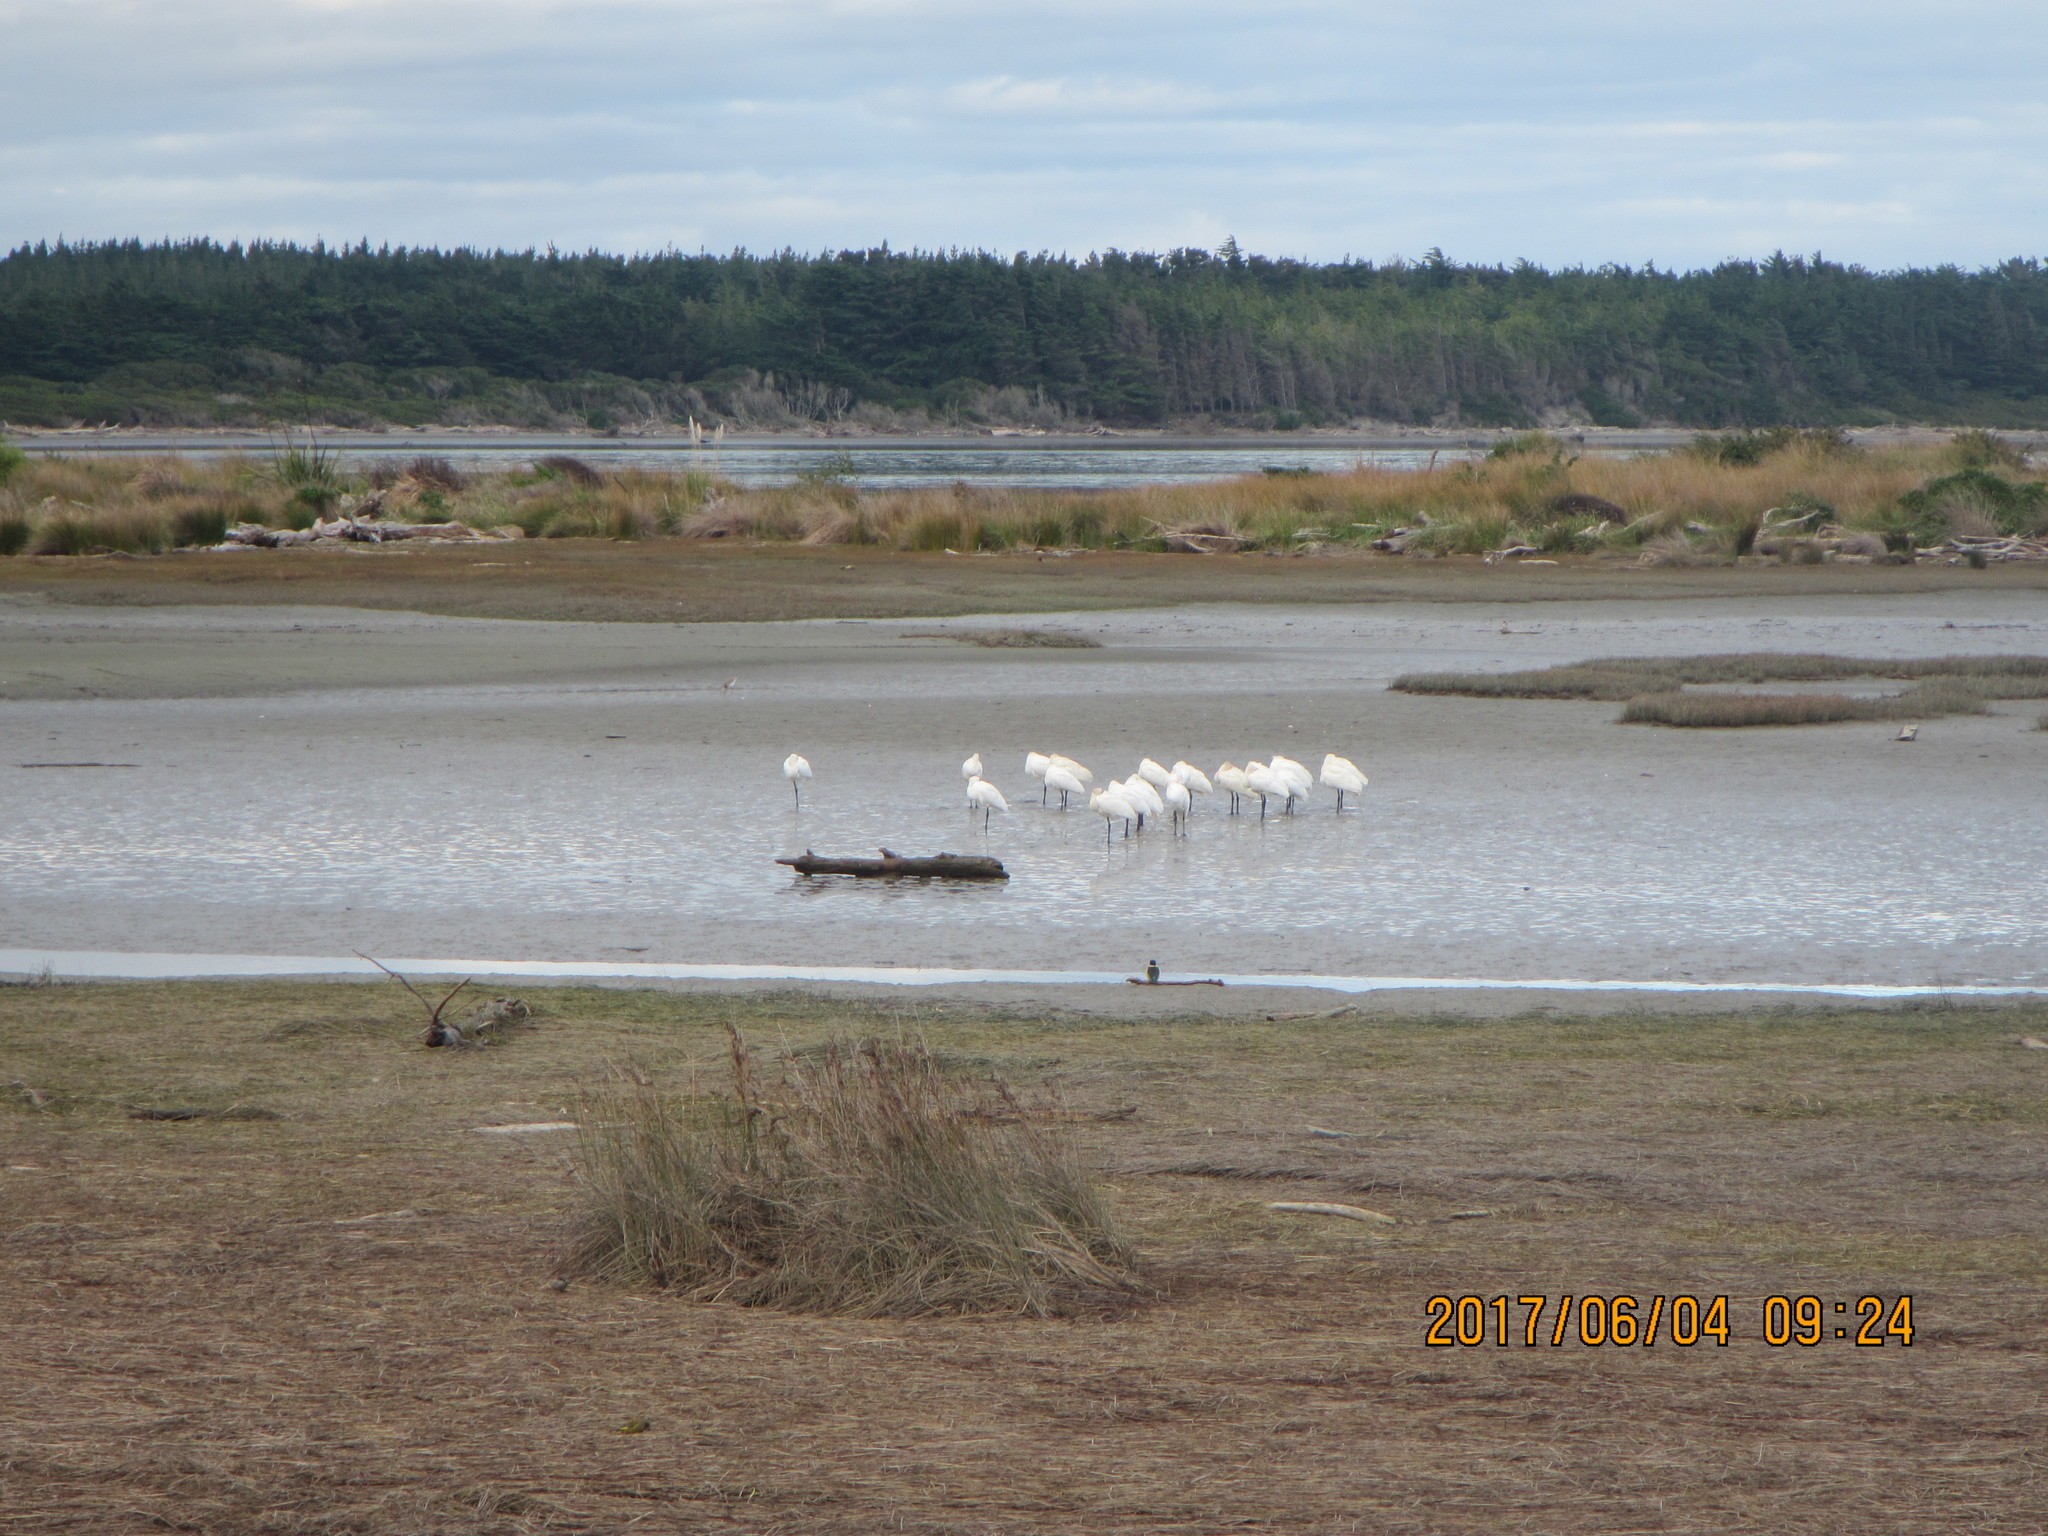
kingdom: Animalia
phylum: Chordata
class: Aves
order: Coraciiformes
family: Alcedinidae
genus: Todiramphus
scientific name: Todiramphus sanctus
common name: Sacred kingfisher
